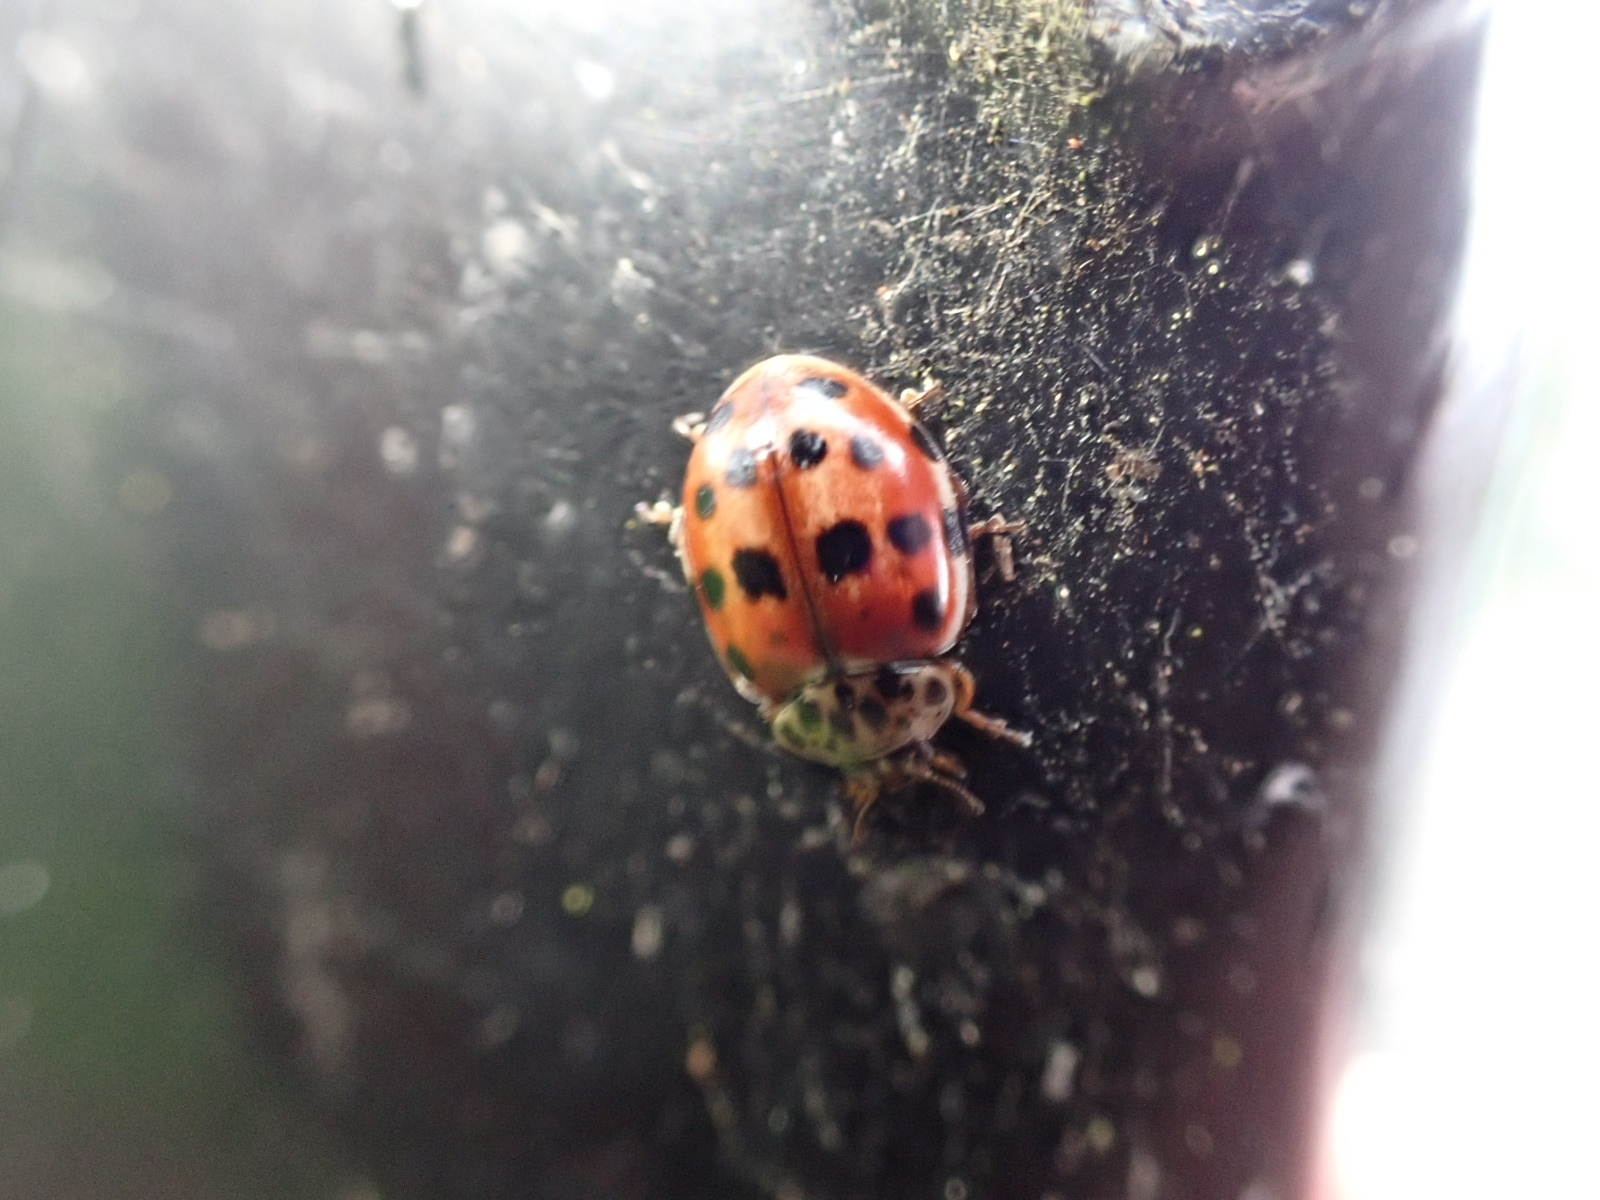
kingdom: Animalia
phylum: Arthropoda
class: Insecta
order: Coleoptera
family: Coccinellidae
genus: Harmonia
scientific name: Harmonia quadripunctata
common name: Cream-streaked ladybird
